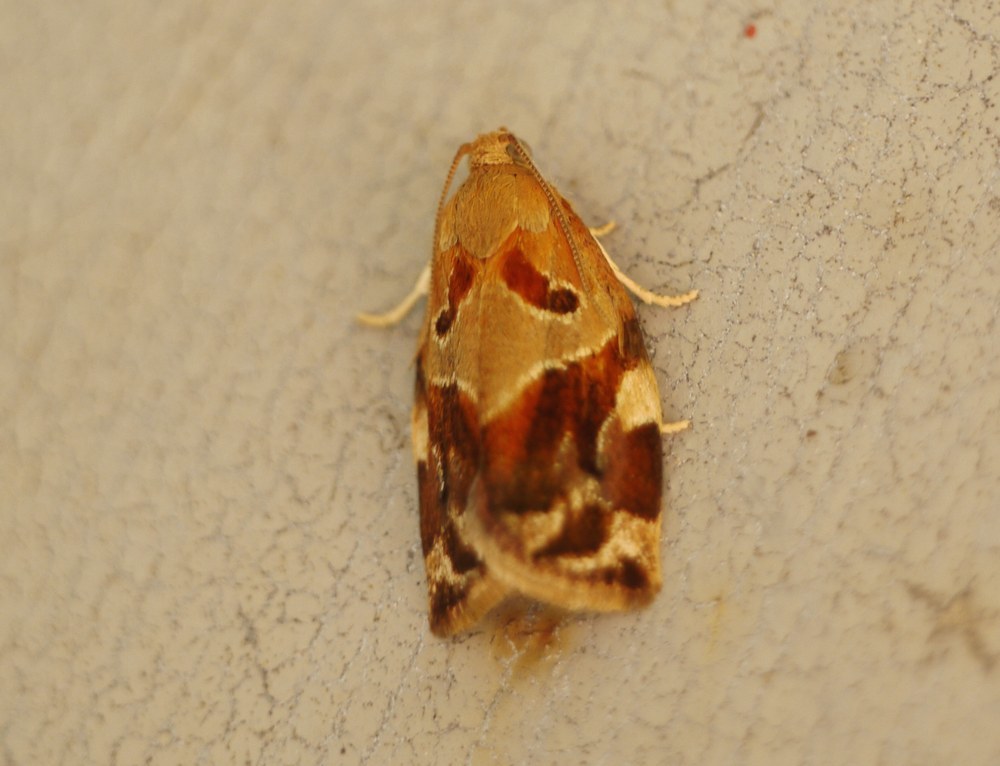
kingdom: Animalia
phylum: Arthropoda
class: Insecta
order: Lepidoptera
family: Tortricidae
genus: Archips
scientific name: Archips xylosteana
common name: Variegated golden tortrix
